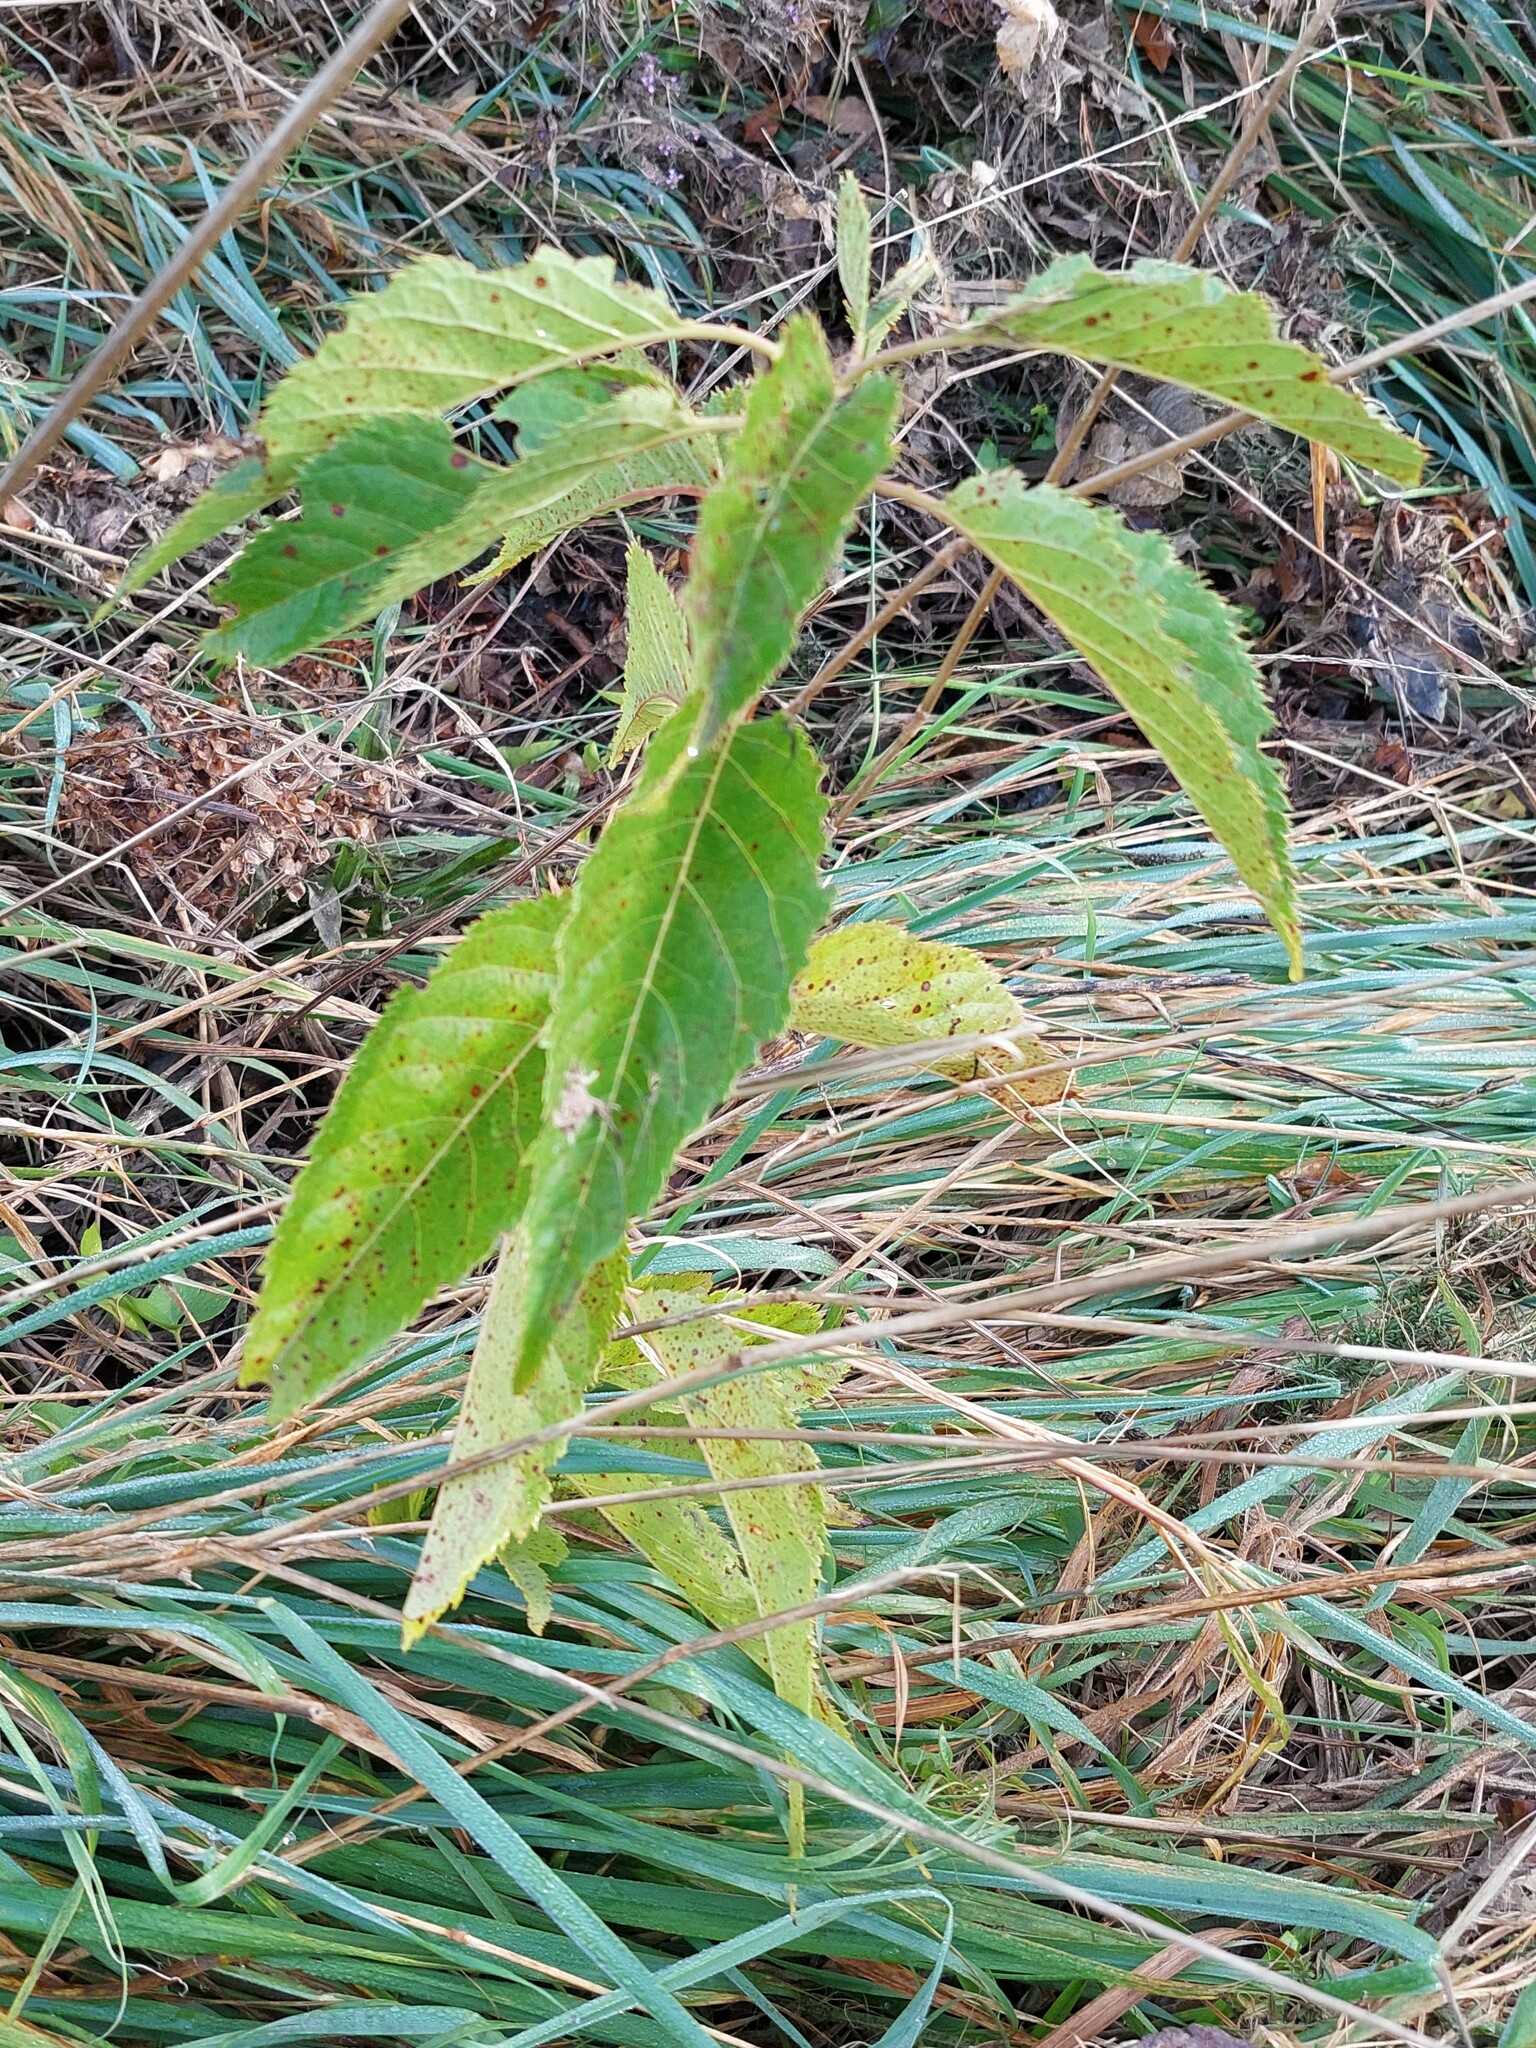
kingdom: Plantae
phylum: Tracheophyta
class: Magnoliopsida
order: Rosales
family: Rosaceae
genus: Prunus
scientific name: Prunus serrulata
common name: Japanese cherry
